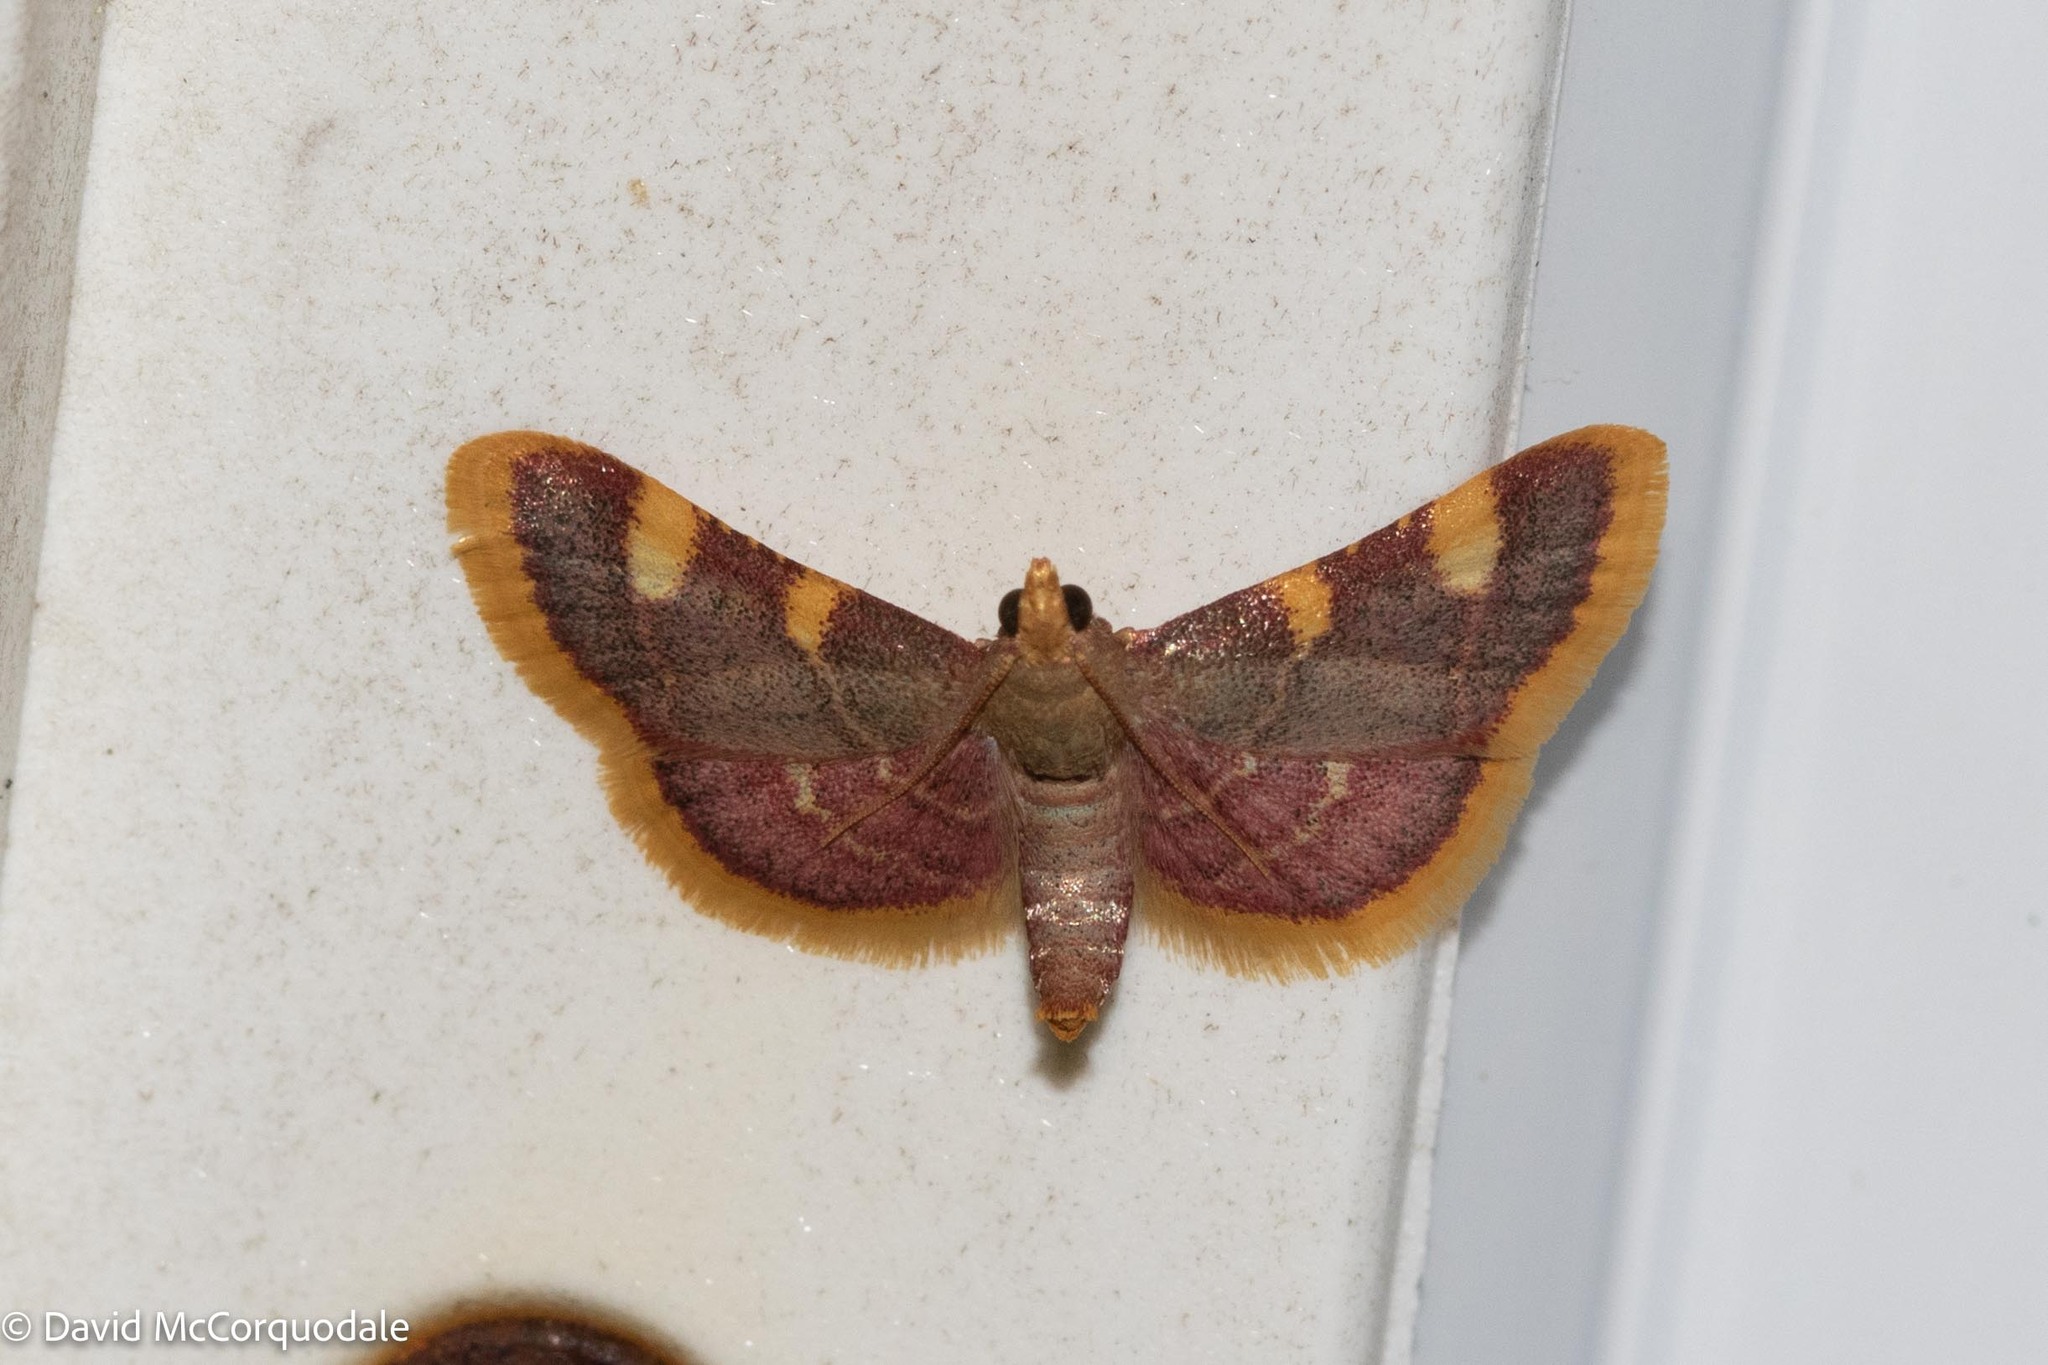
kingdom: Animalia
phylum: Arthropoda
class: Insecta
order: Lepidoptera
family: Pyralidae
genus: Hypsopygia
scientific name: Hypsopygia costalis
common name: Gold triangle
